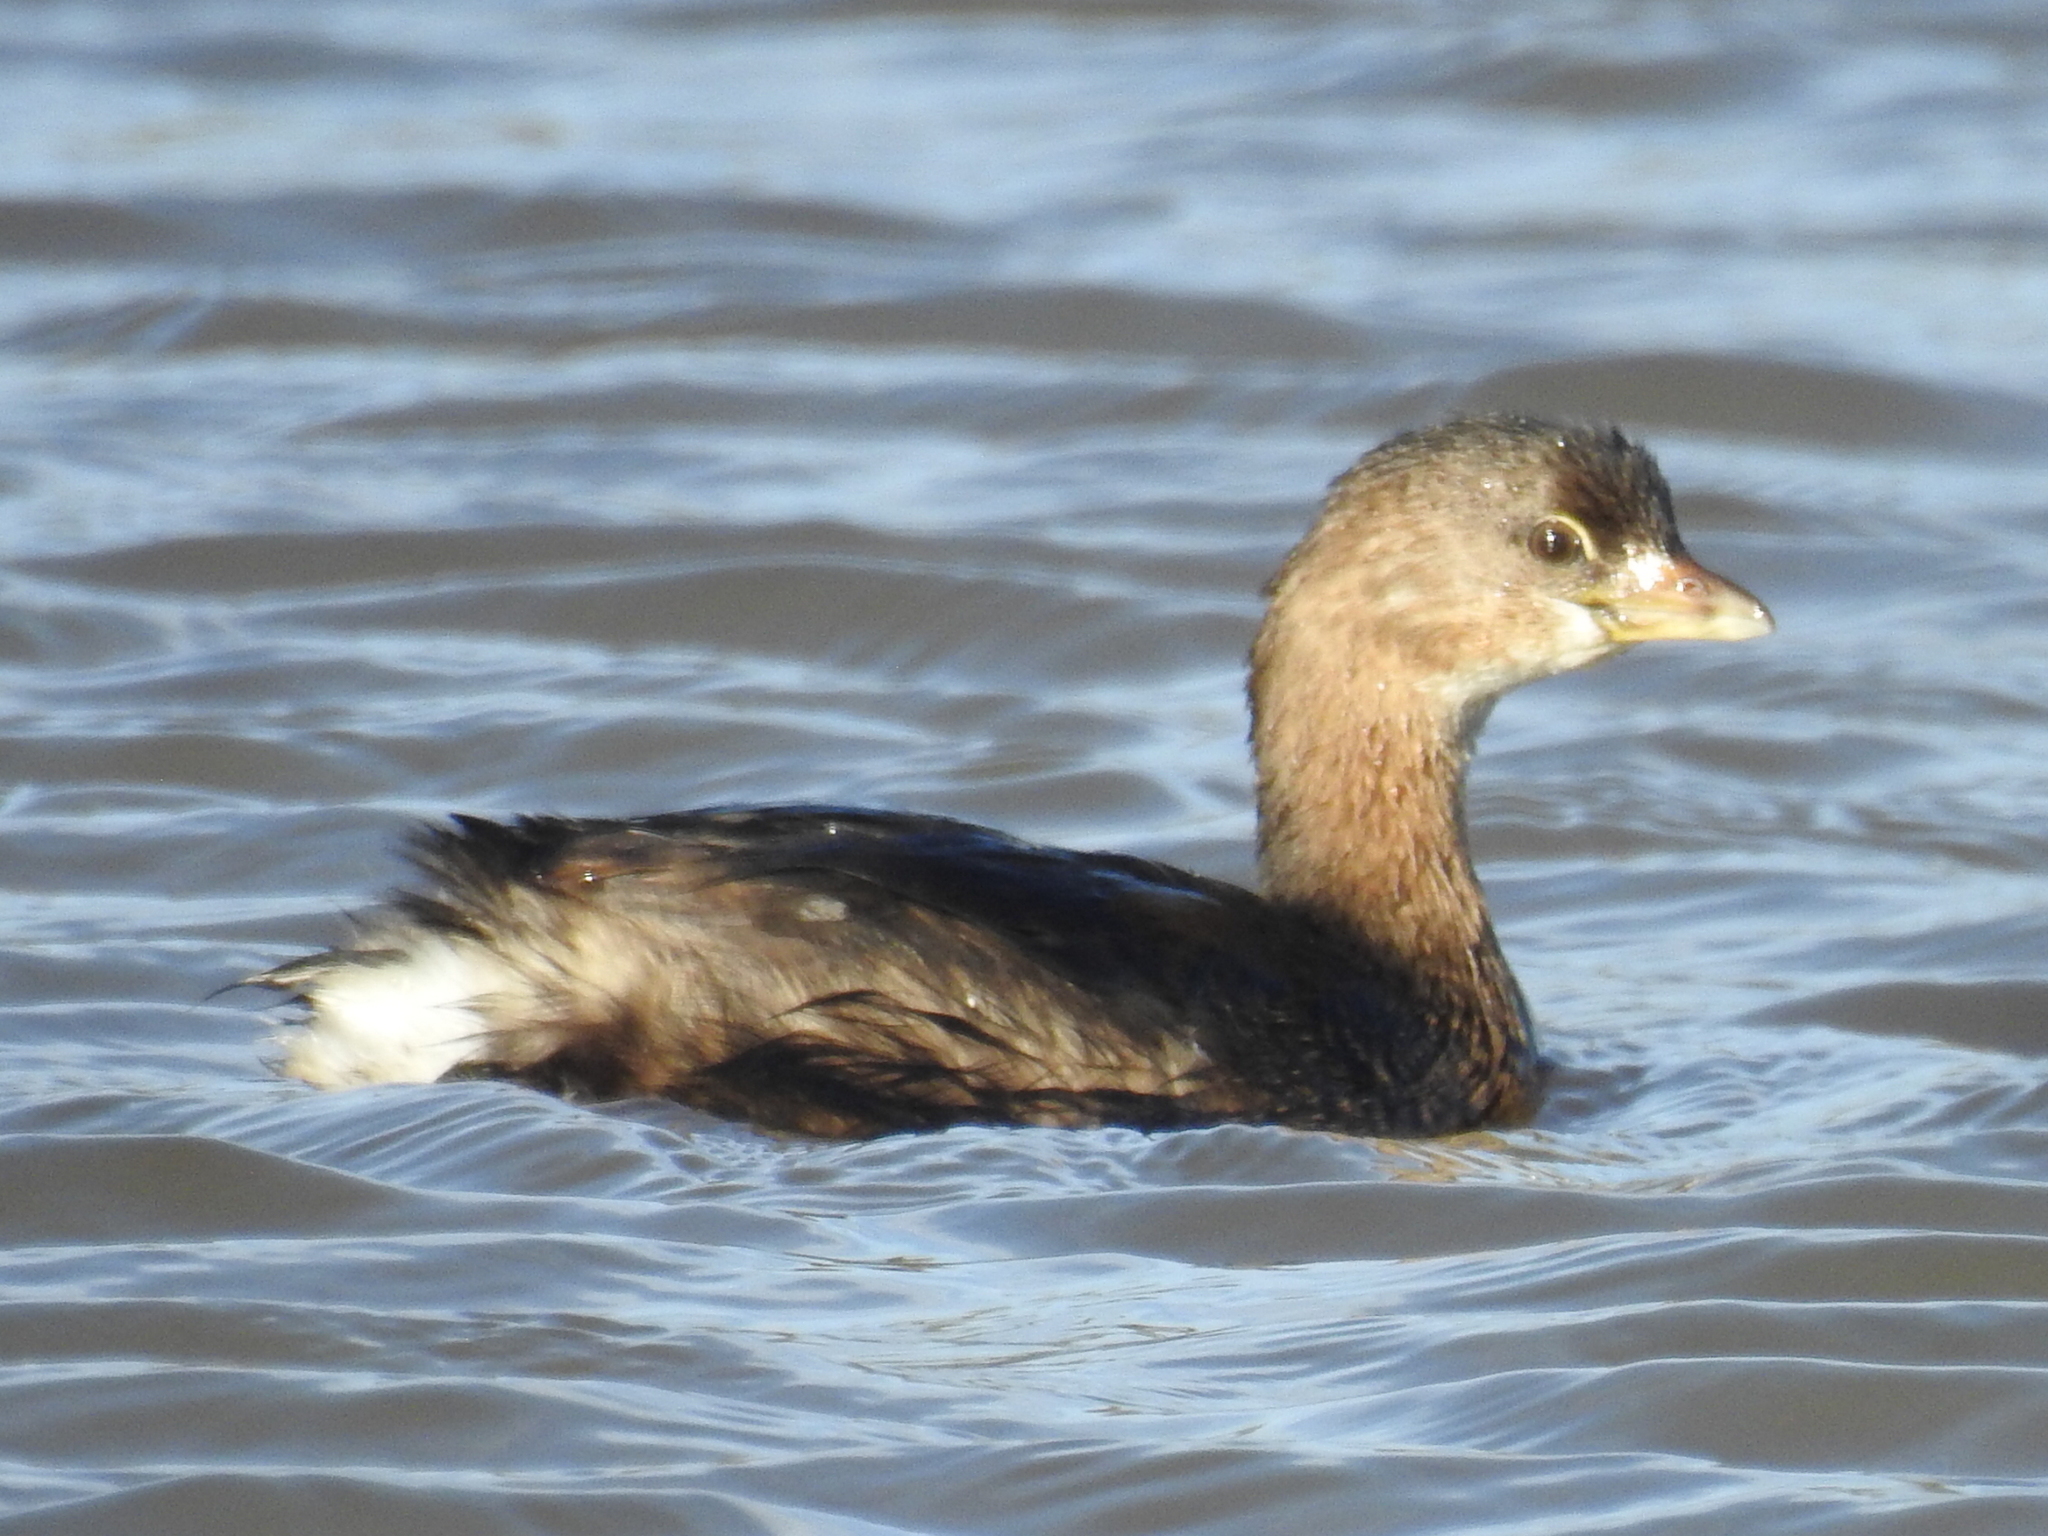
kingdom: Animalia
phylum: Chordata
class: Aves
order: Podicipediformes
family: Podicipedidae
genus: Podilymbus
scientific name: Podilymbus podiceps
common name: Pied-billed grebe
